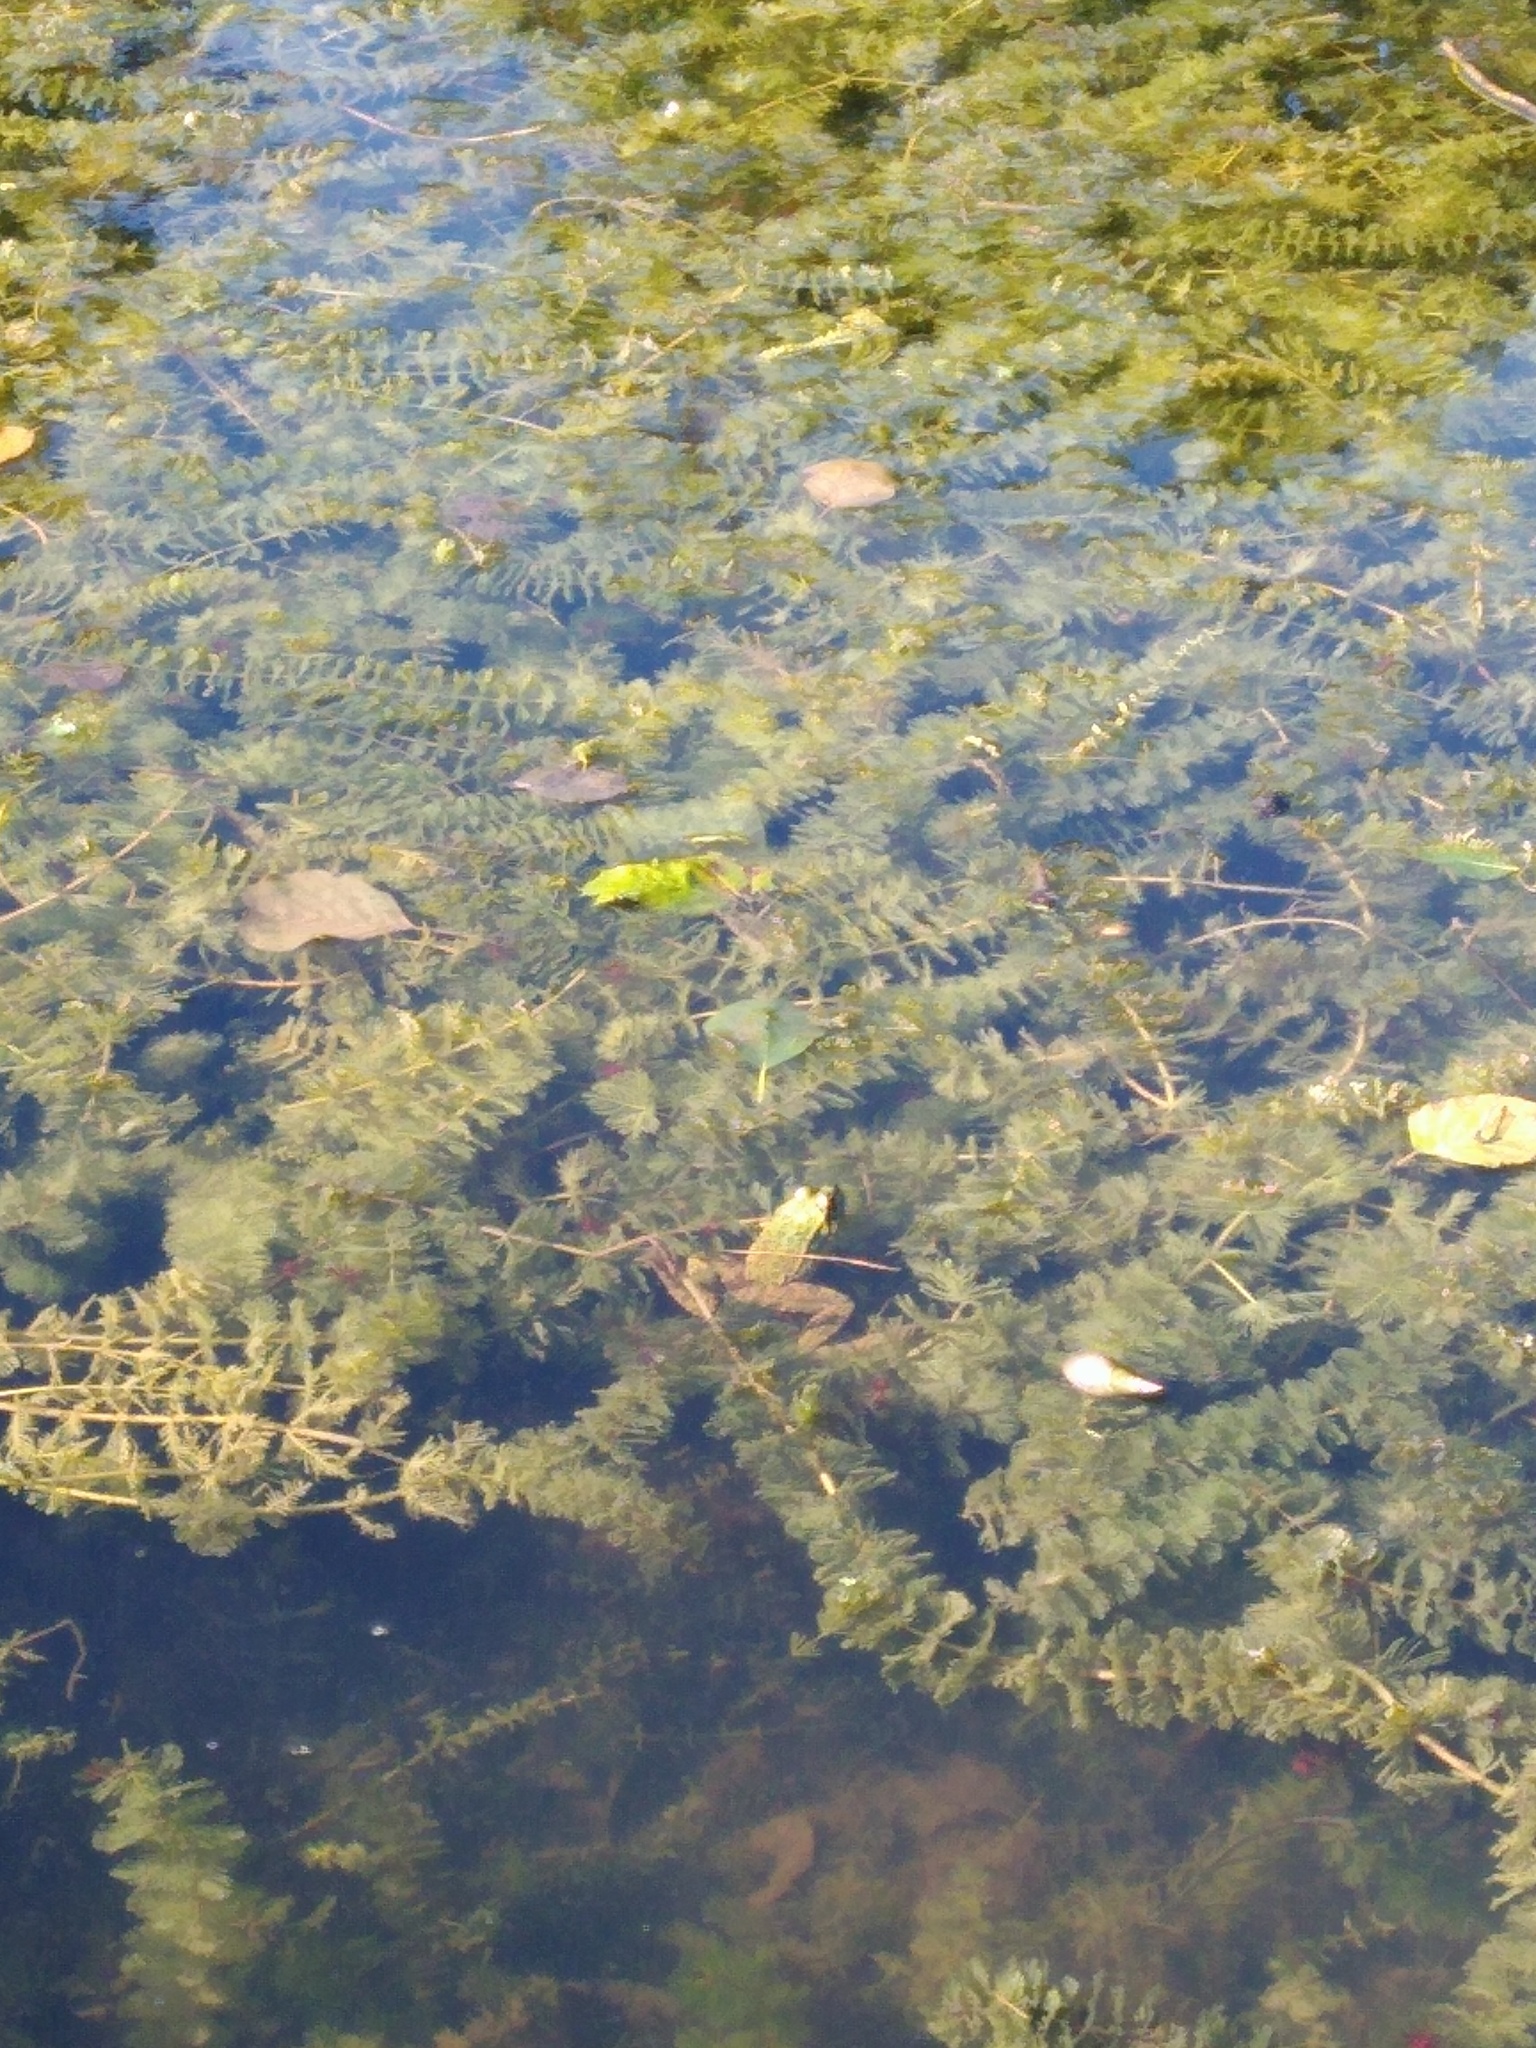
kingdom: Animalia
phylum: Chordata
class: Amphibia
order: Anura
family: Ranidae
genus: Pelophylax
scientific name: Pelophylax ridibundus
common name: Marsh frog
